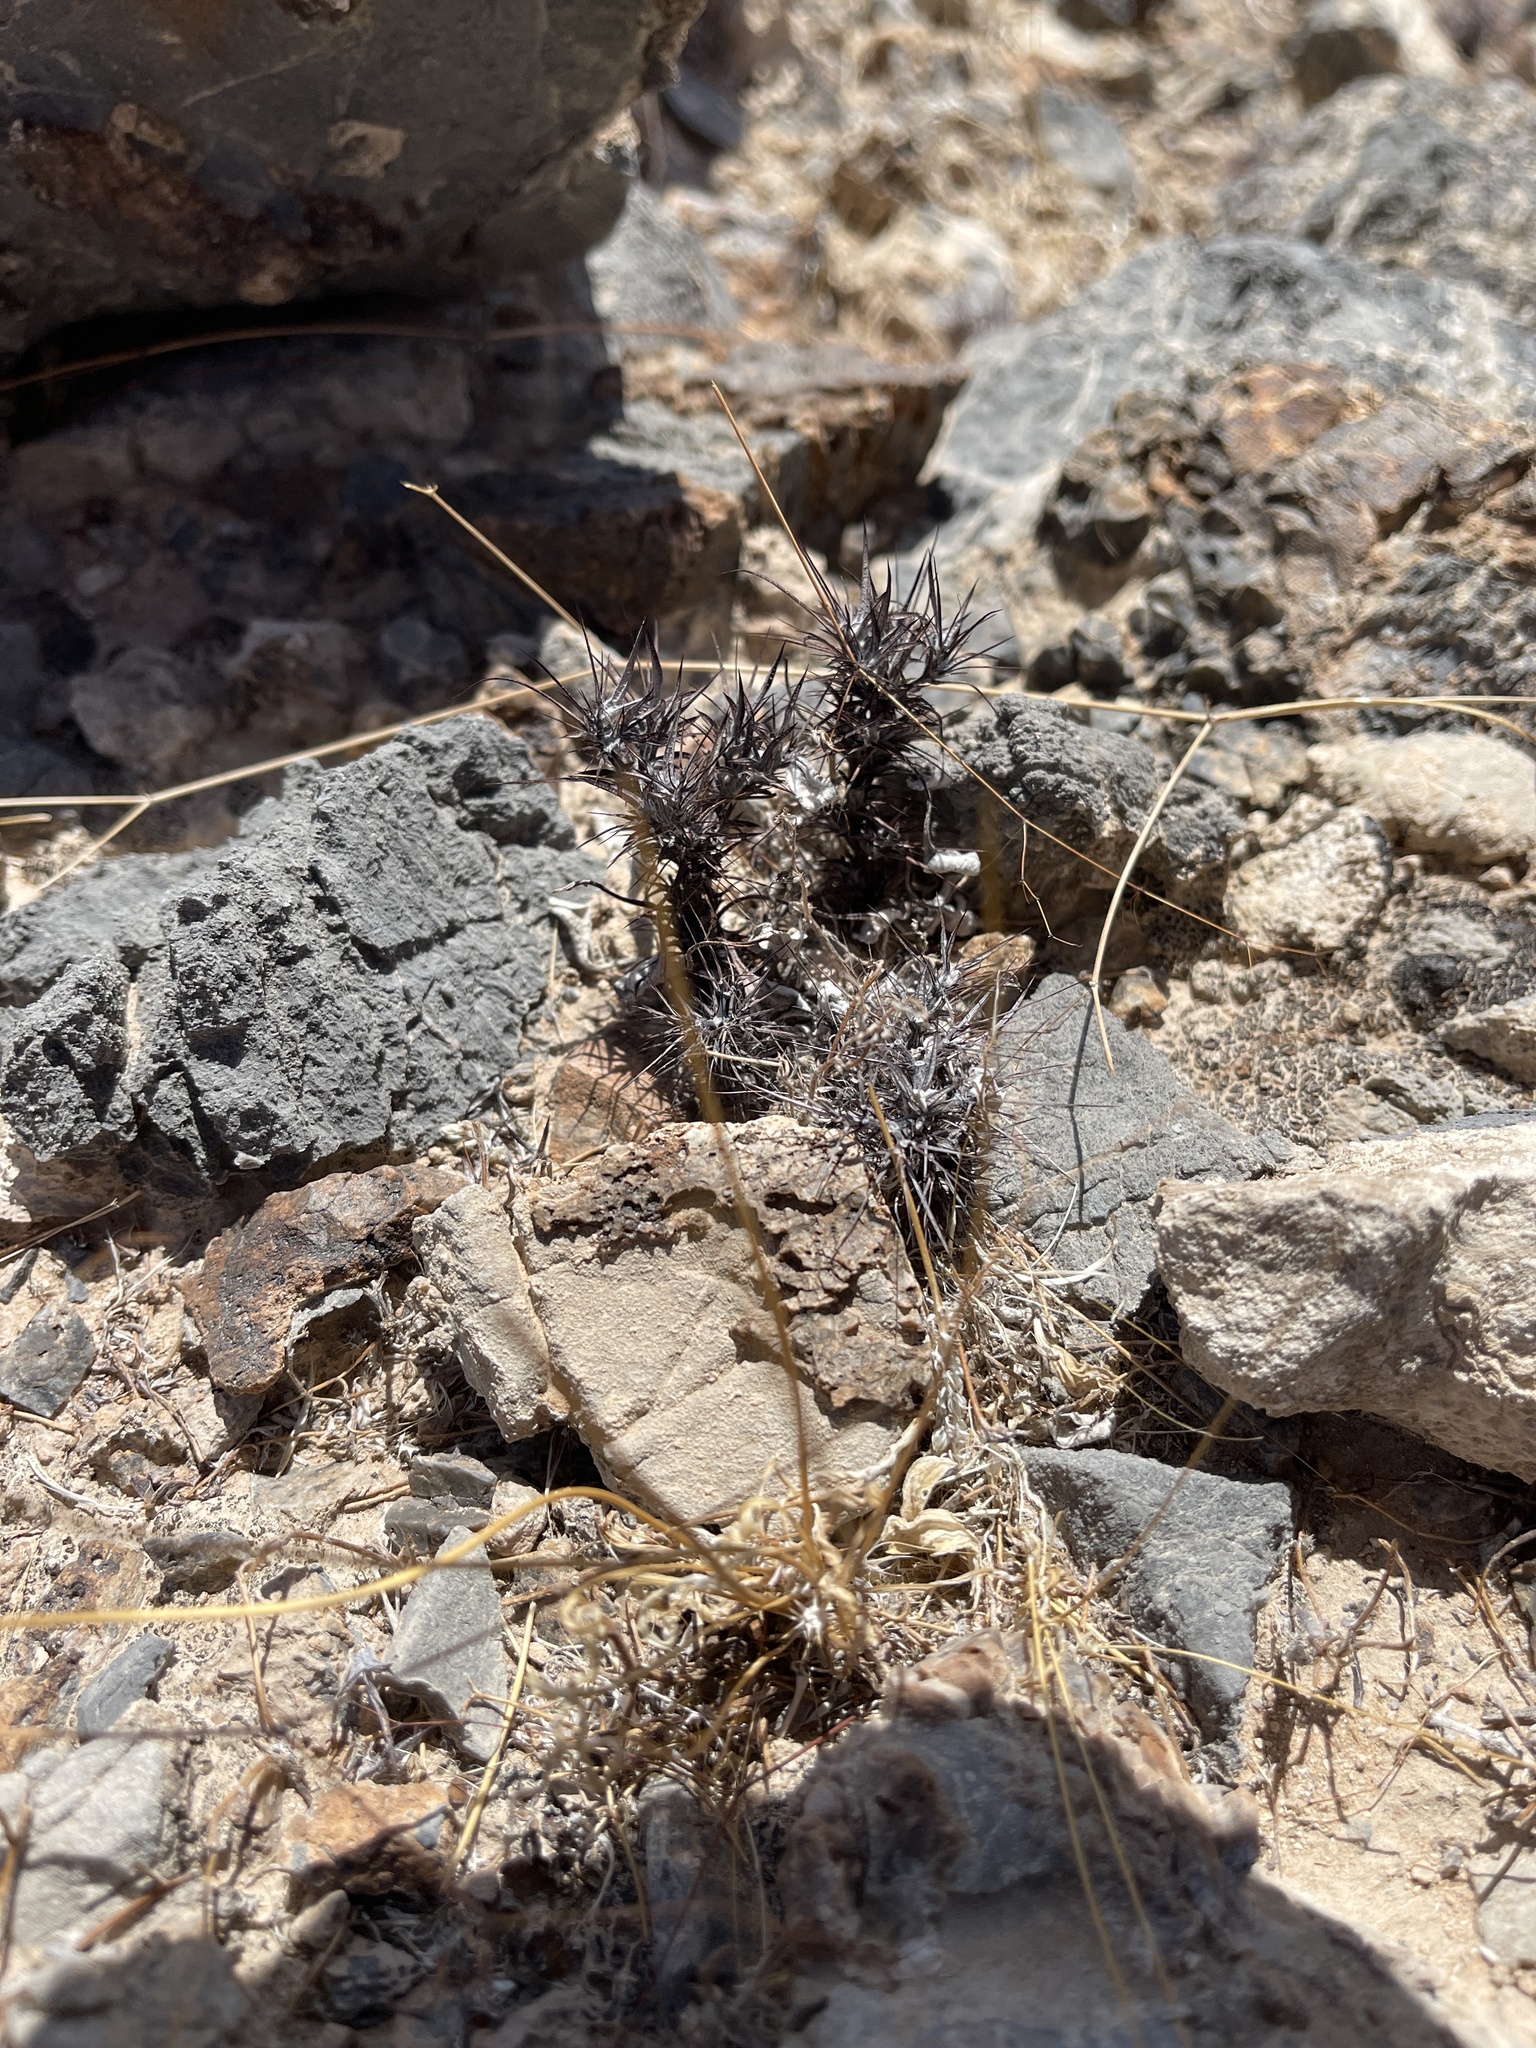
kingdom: Plantae
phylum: Tracheophyta
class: Magnoliopsida
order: Caryophyllales
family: Polygonaceae
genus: Chorizanthe
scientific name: Chorizanthe rigida
